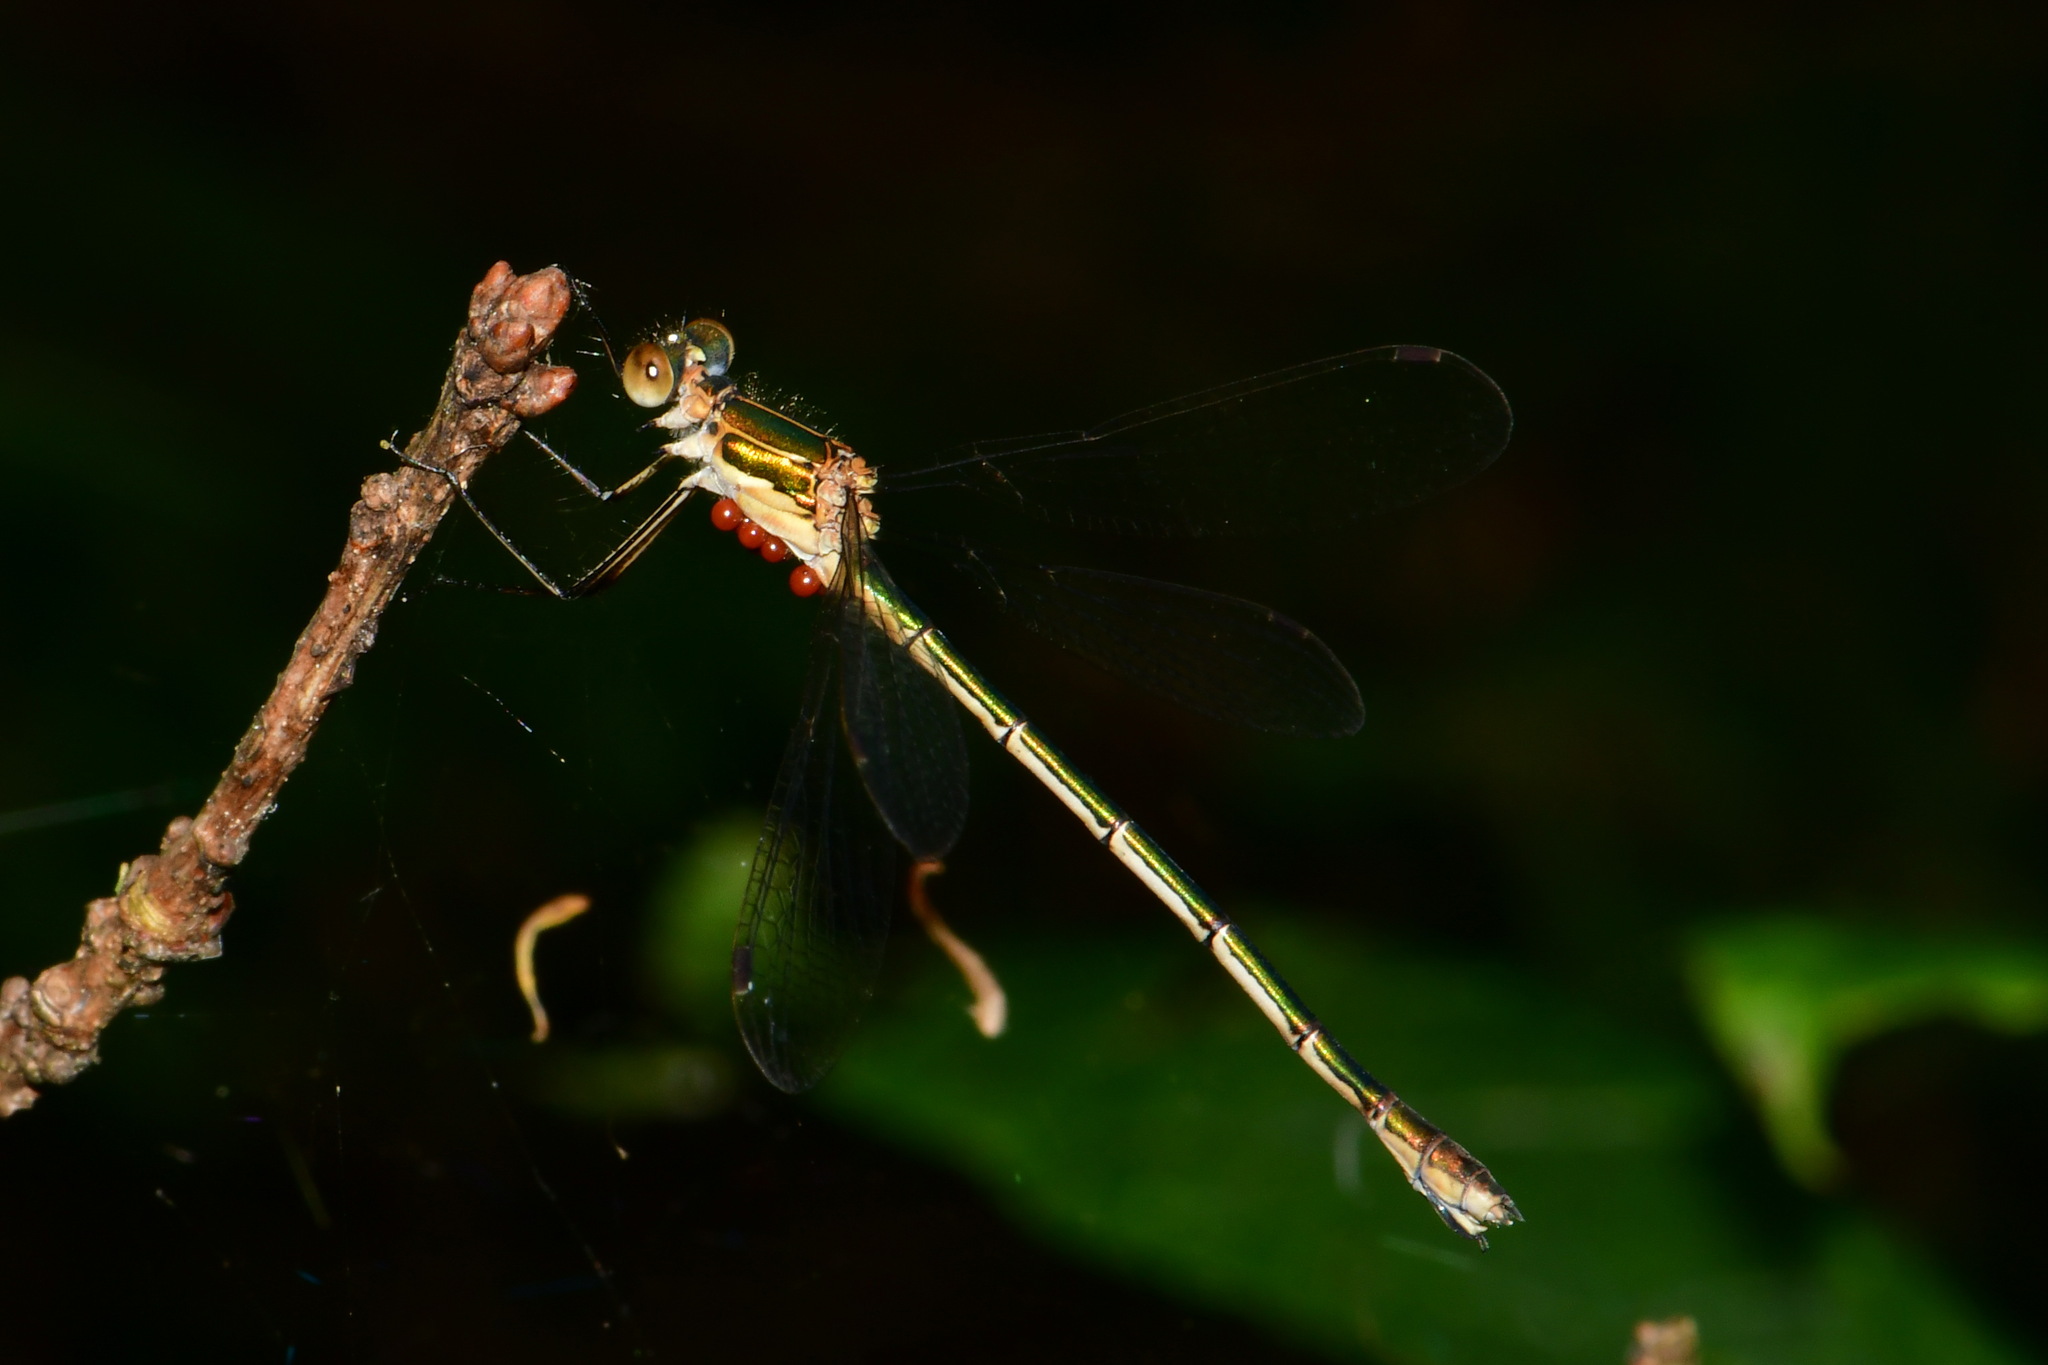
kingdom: Animalia
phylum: Arthropoda
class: Insecta
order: Odonata
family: Lestidae
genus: Lestes
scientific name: Lestes sponsa
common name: Common spreadwing
